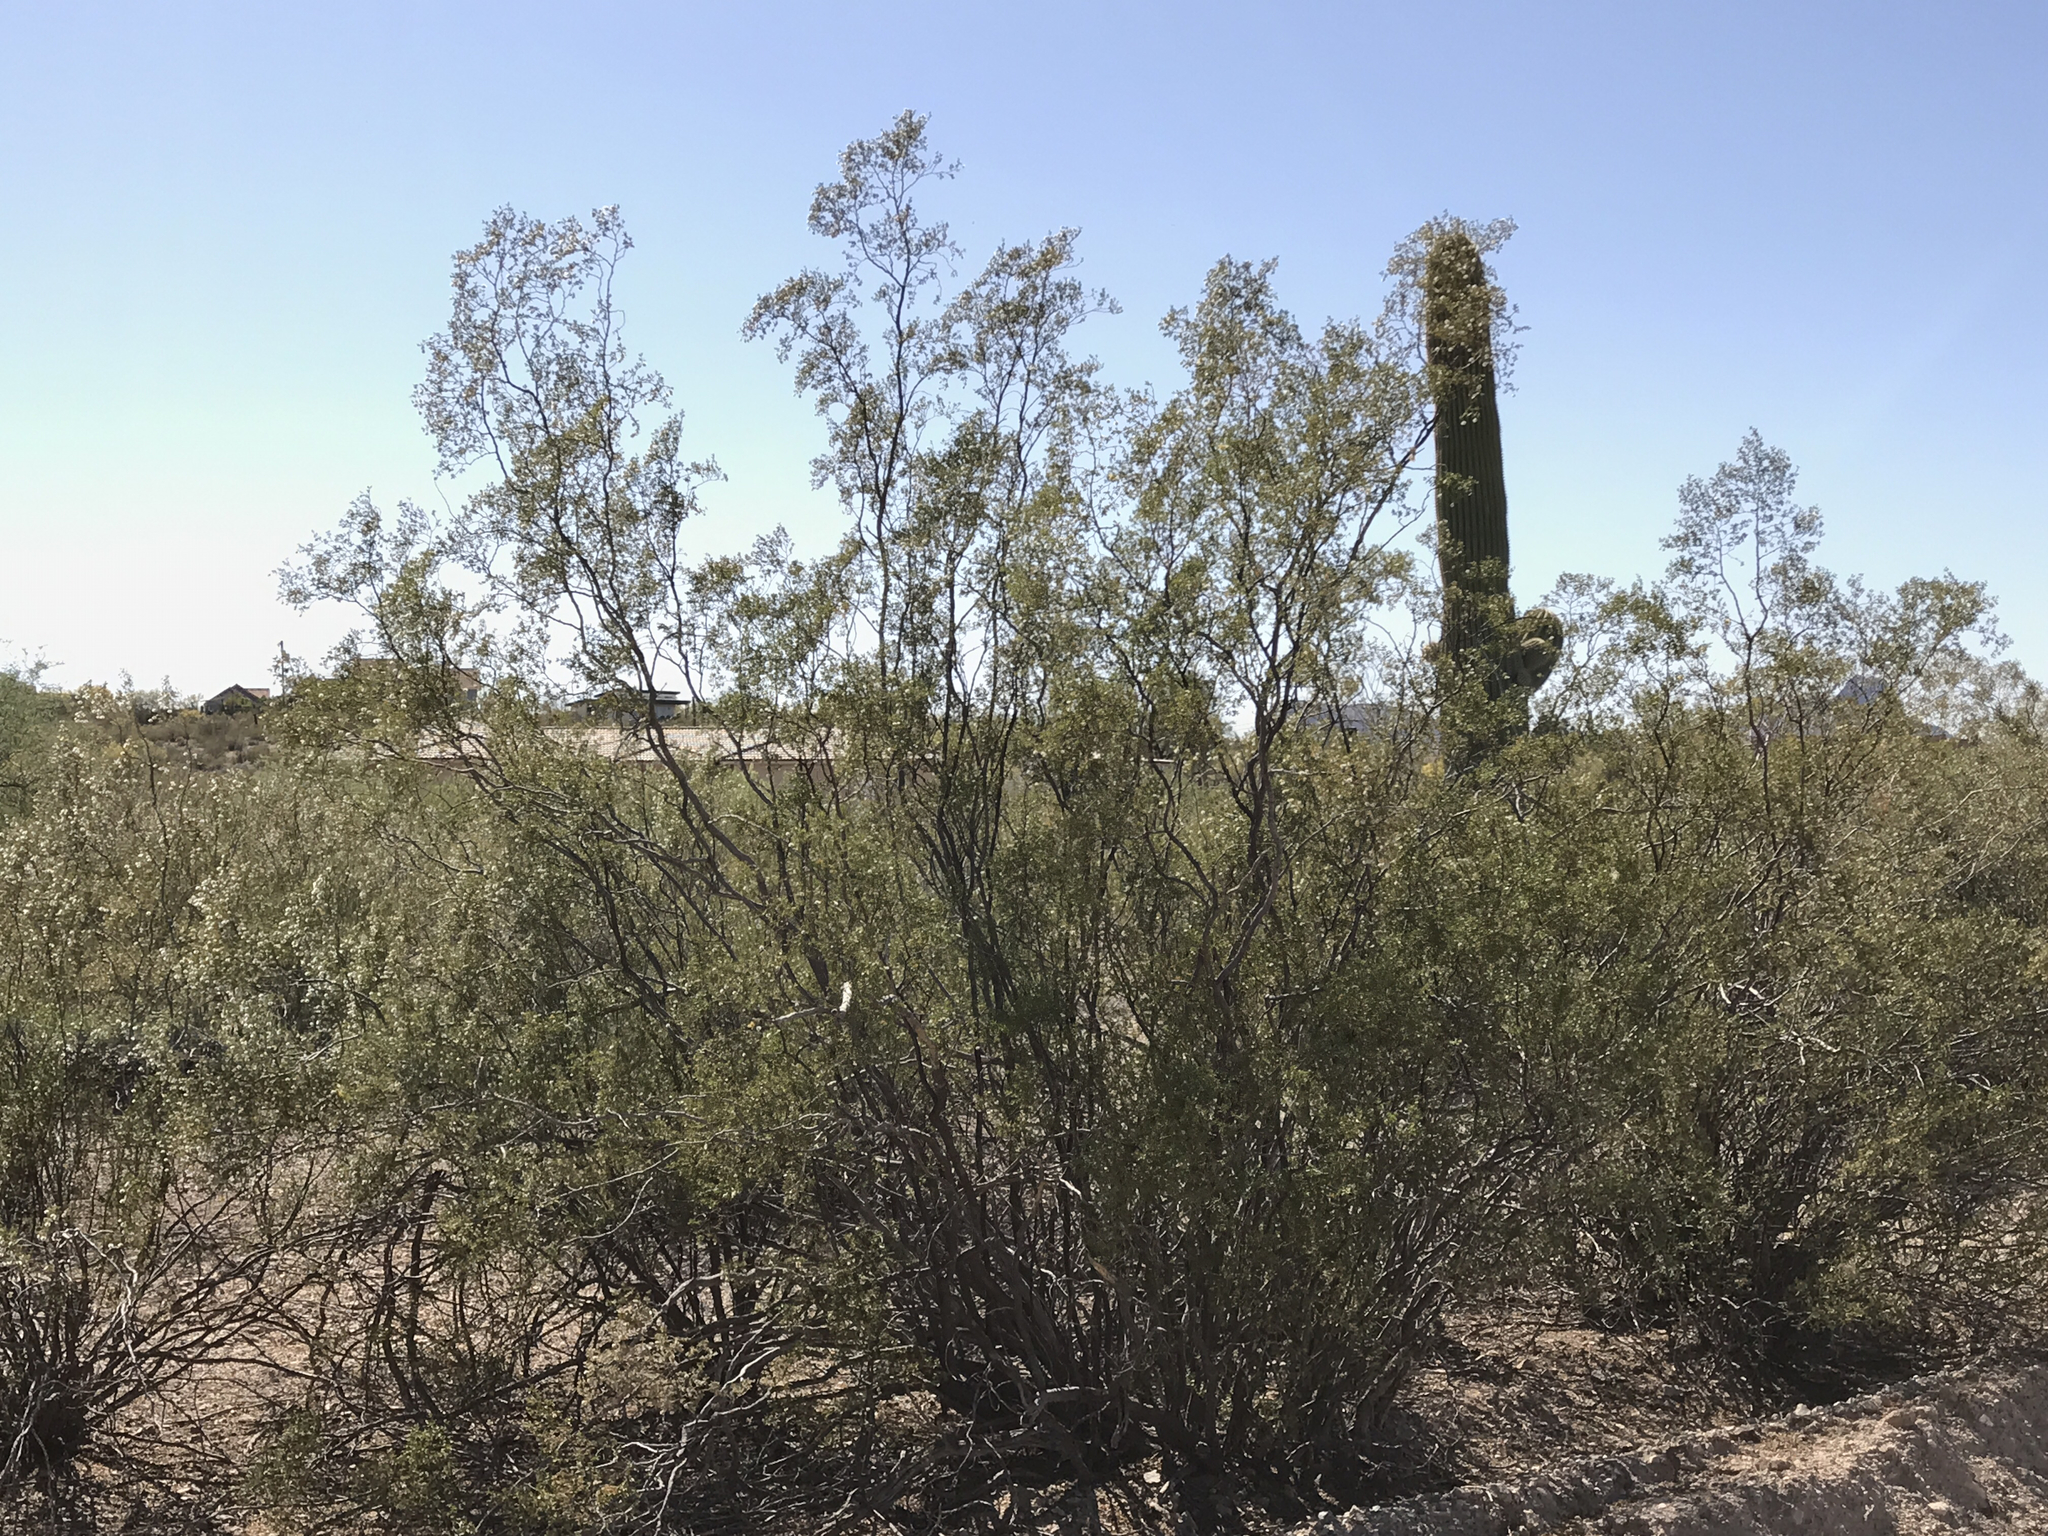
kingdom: Plantae
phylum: Tracheophyta
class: Magnoliopsida
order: Zygophyllales
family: Zygophyllaceae
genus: Larrea
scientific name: Larrea tridentata
